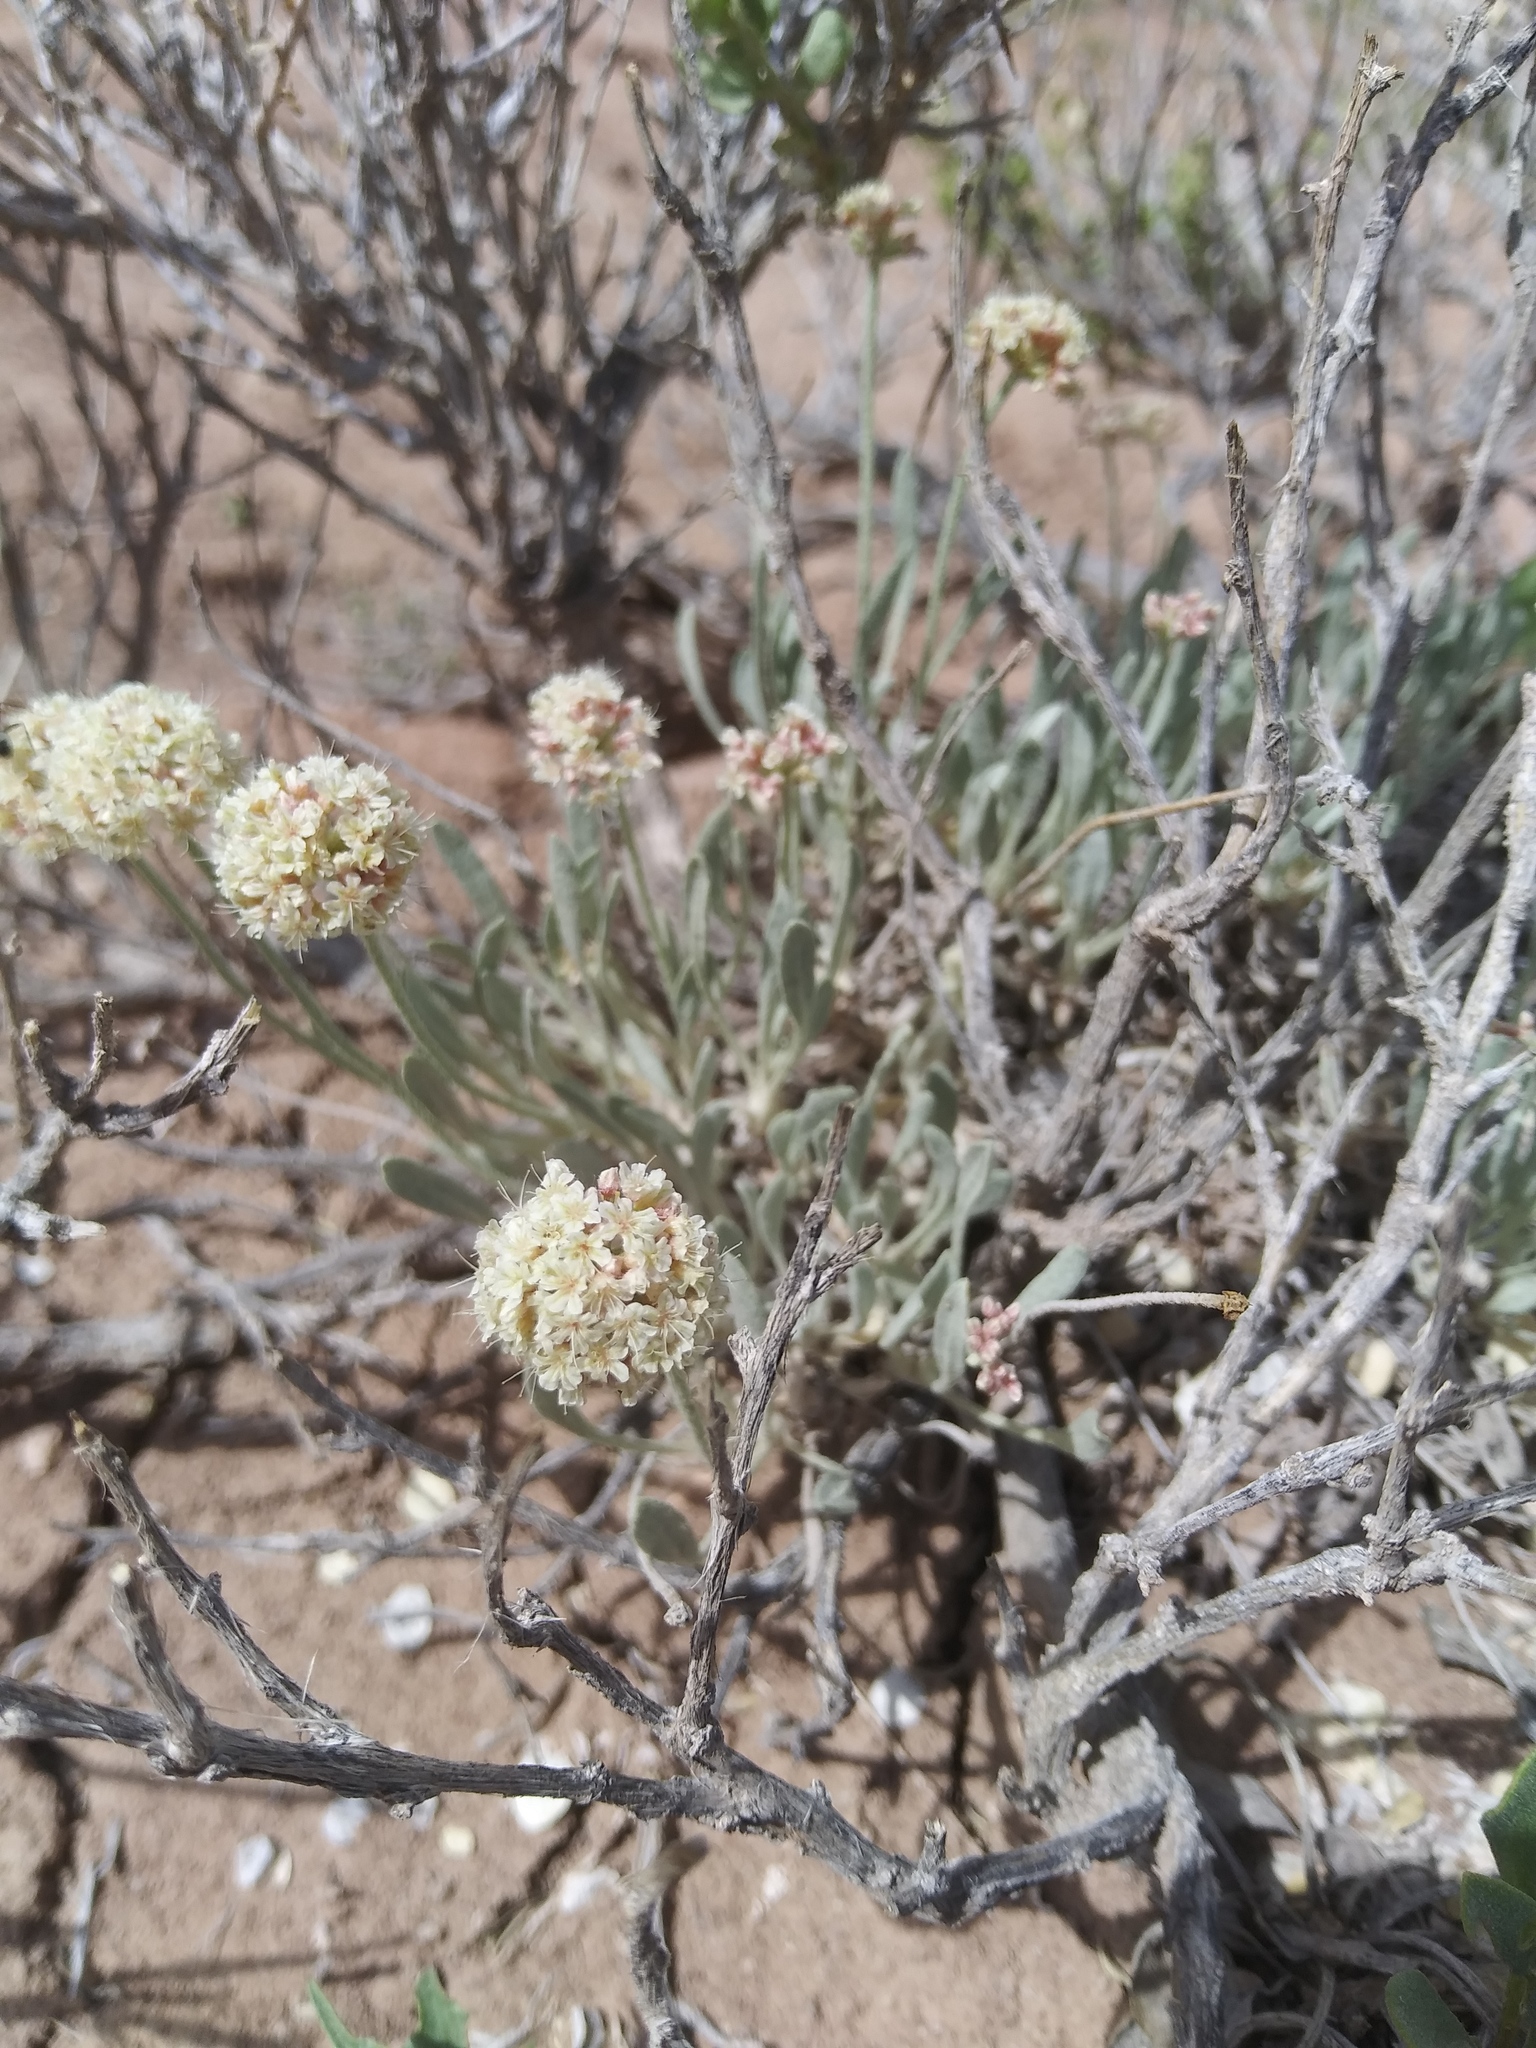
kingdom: Plantae
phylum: Tracheophyta
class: Magnoliopsida
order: Caryophyllales
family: Polygonaceae
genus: Eriogonum
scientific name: Eriogonum pauciflorum
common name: Few-flower wild buckwheat
